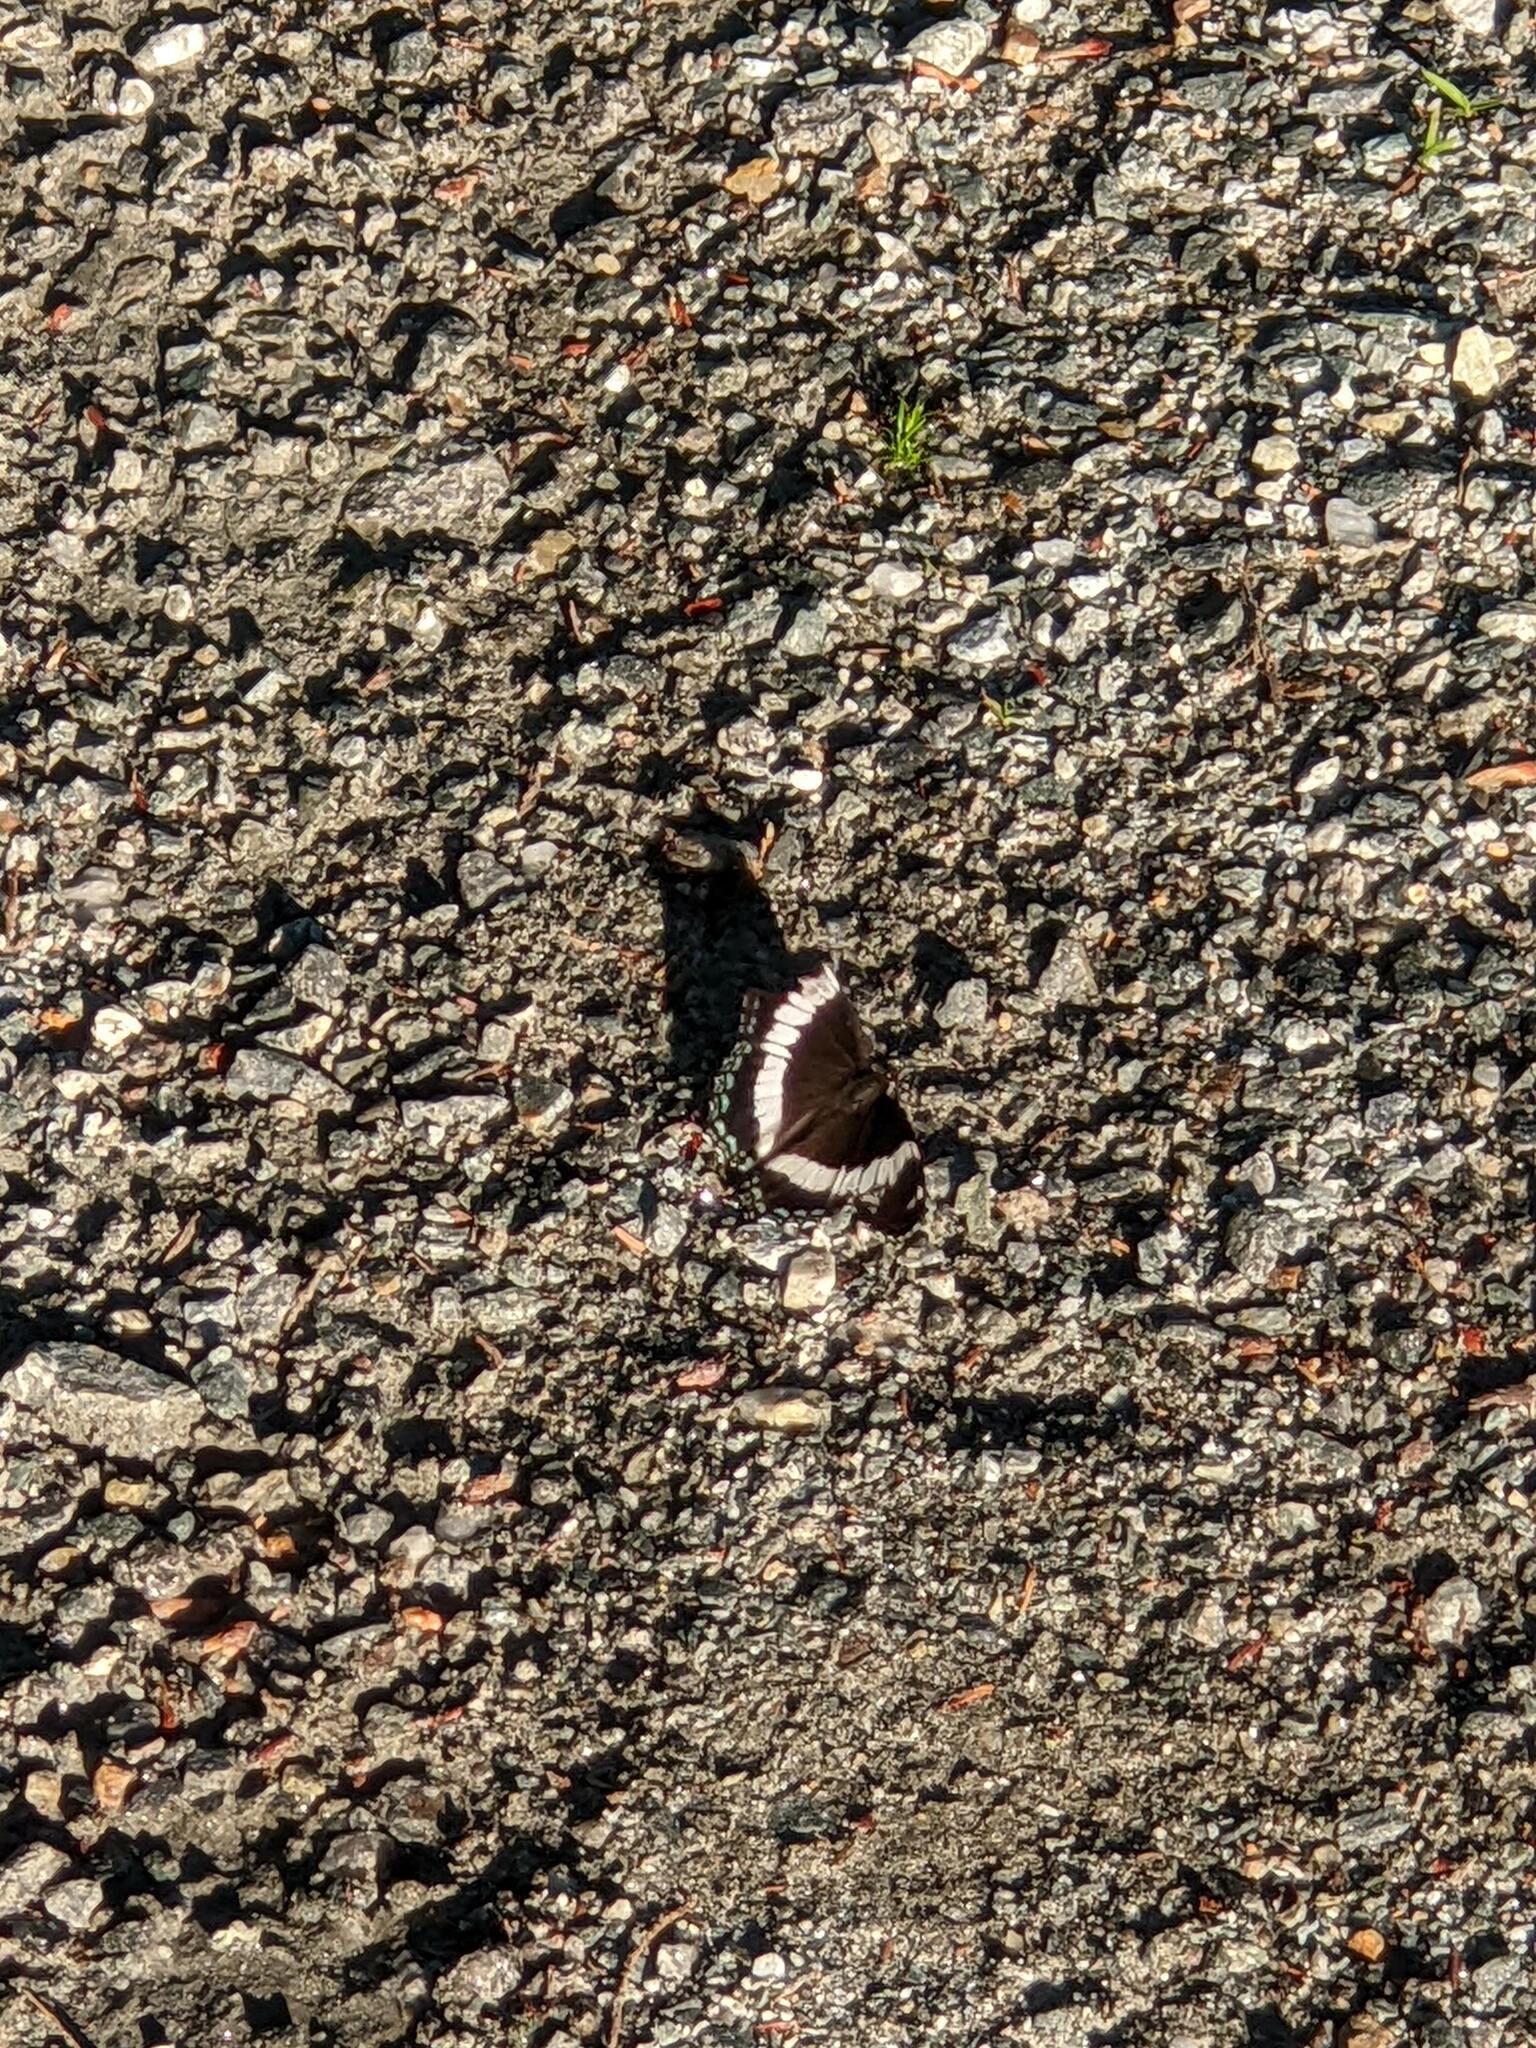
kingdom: Animalia
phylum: Arthropoda
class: Insecta
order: Lepidoptera
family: Nymphalidae
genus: Limenitis
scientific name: Limenitis arthemis
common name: Red-spotted admiral
